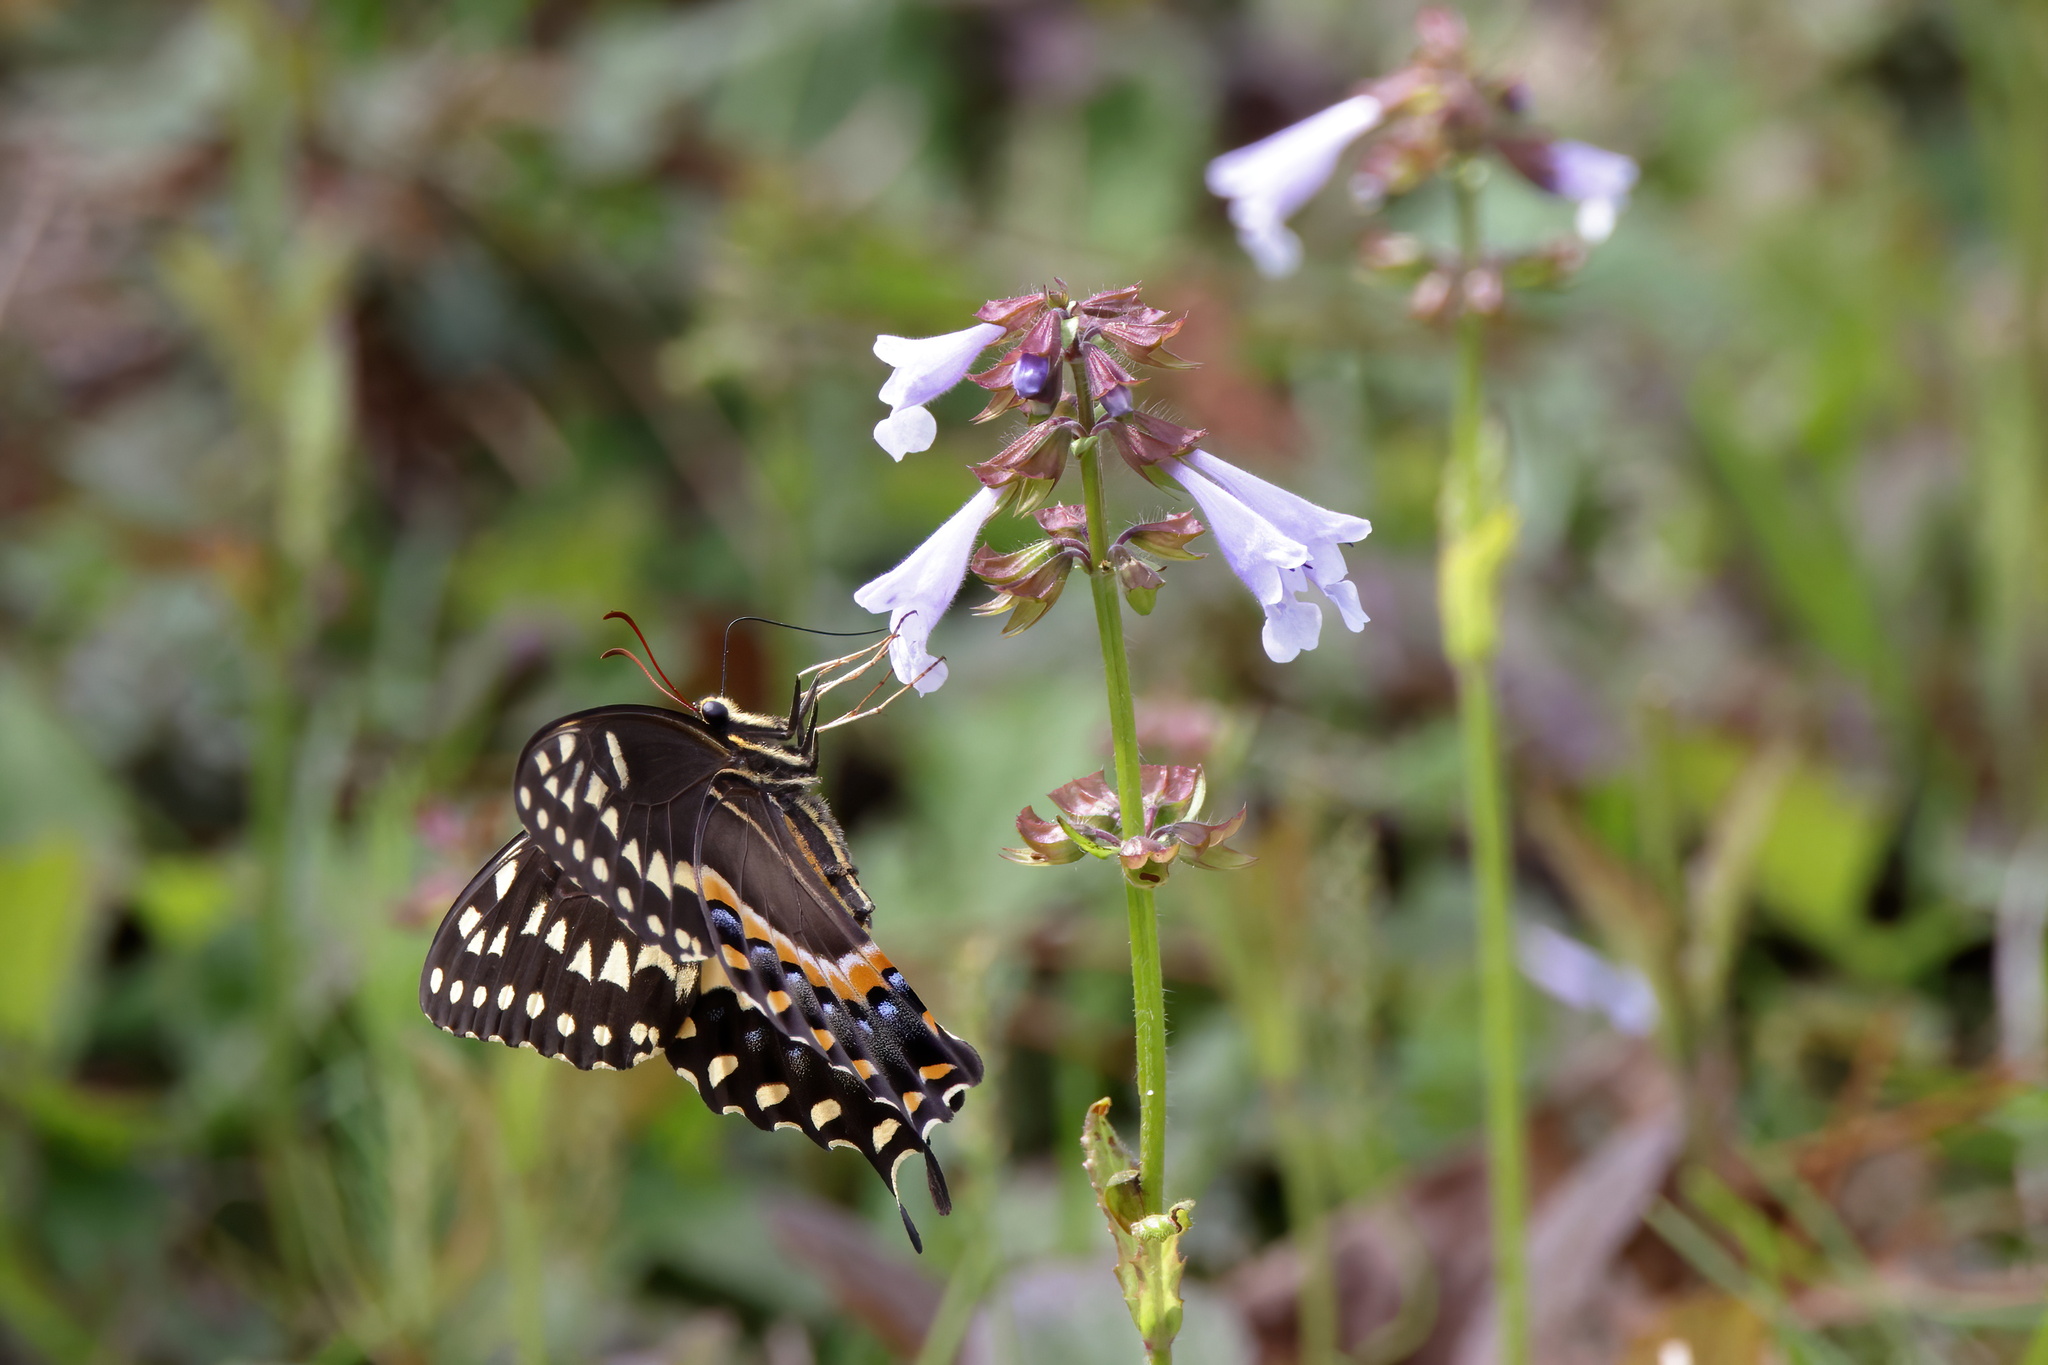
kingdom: Animalia
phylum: Arthropoda
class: Insecta
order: Lepidoptera
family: Papilionidae
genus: Papilio
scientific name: Papilio palamedes
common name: Palamedes swallowtail
